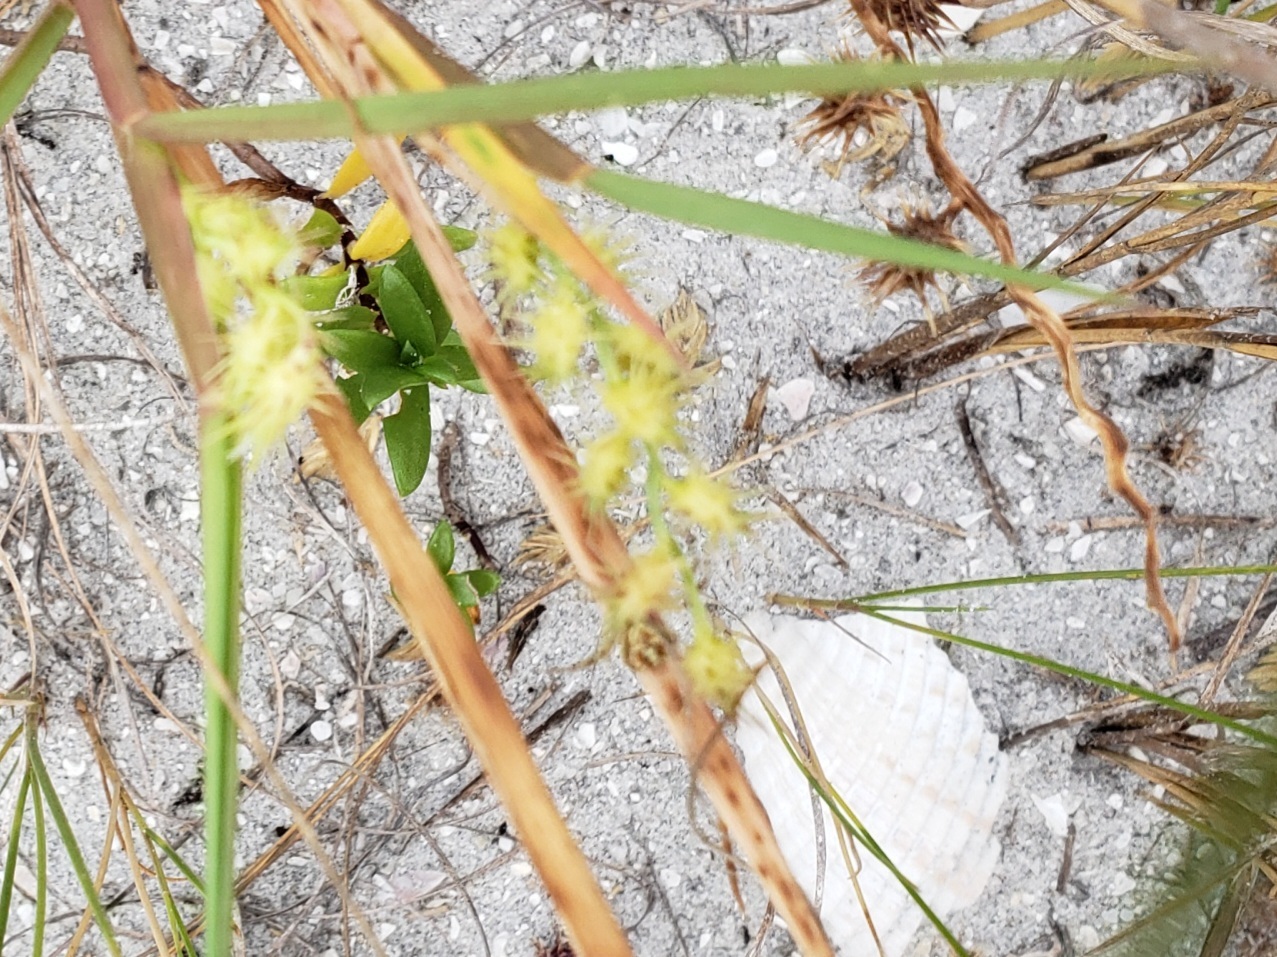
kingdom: Plantae
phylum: Tracheophyta
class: Liliopsida
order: Poales
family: Poaceae
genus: Cenchrus
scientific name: Cenchrus spinifex
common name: Coast sandbur
